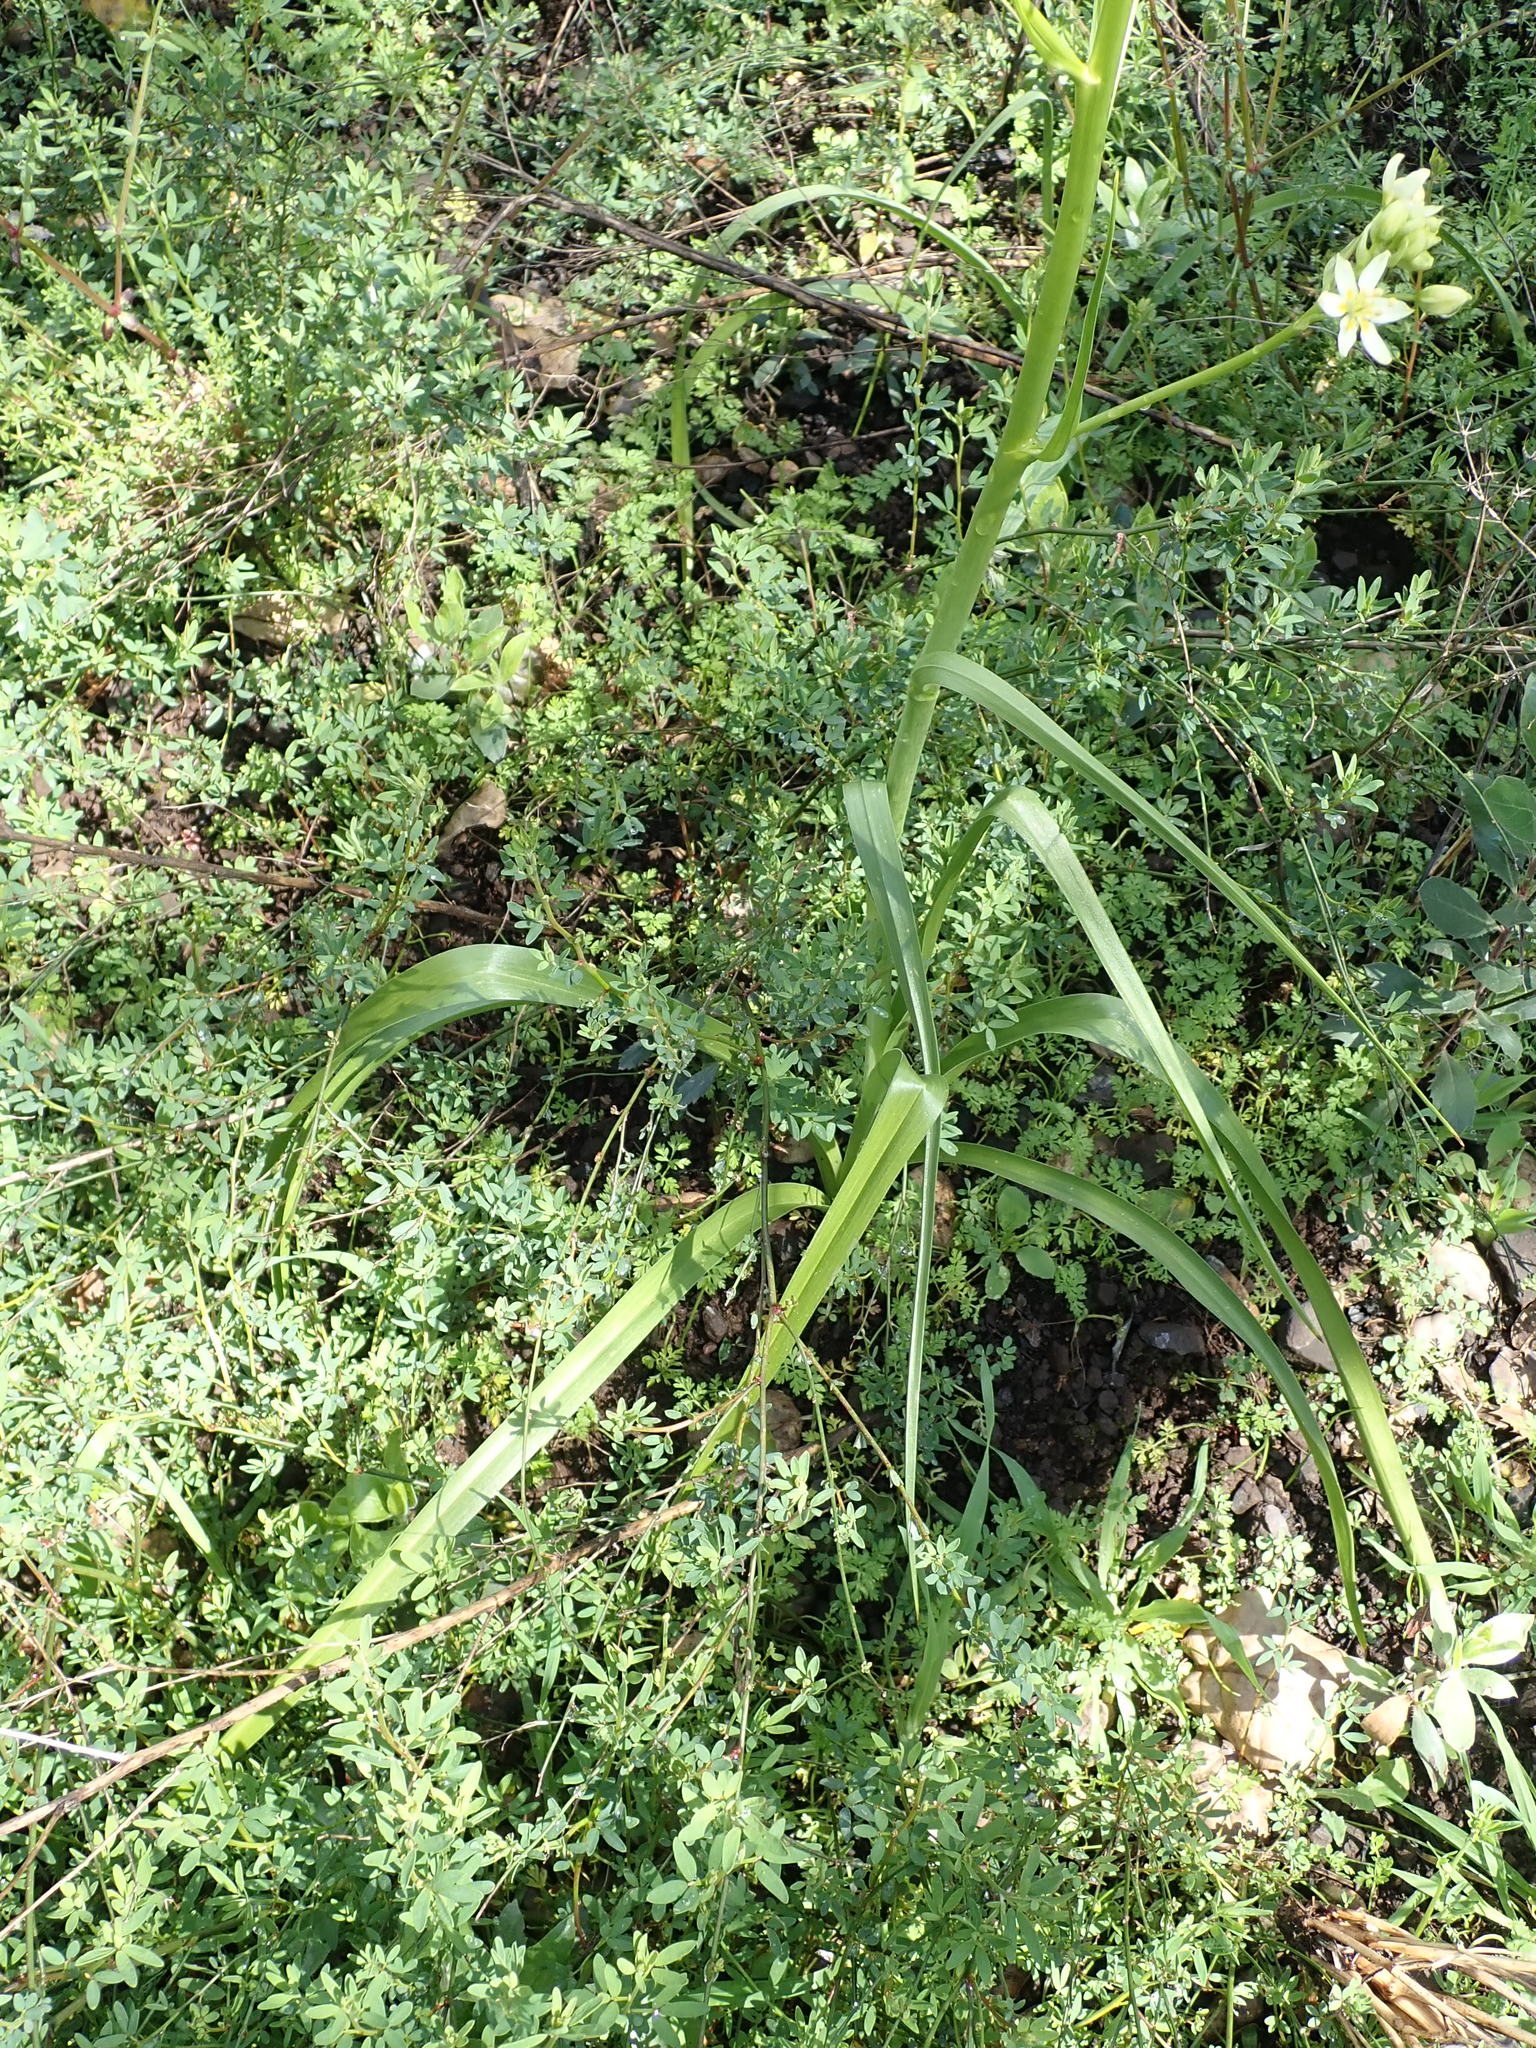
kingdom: Plantae
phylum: Tracheophyta
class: Liliopsida
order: Liliales
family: Melanthiaceae
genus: Toxicoscordion
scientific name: Toxicoscordion fremontii
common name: Fremont's death camas
